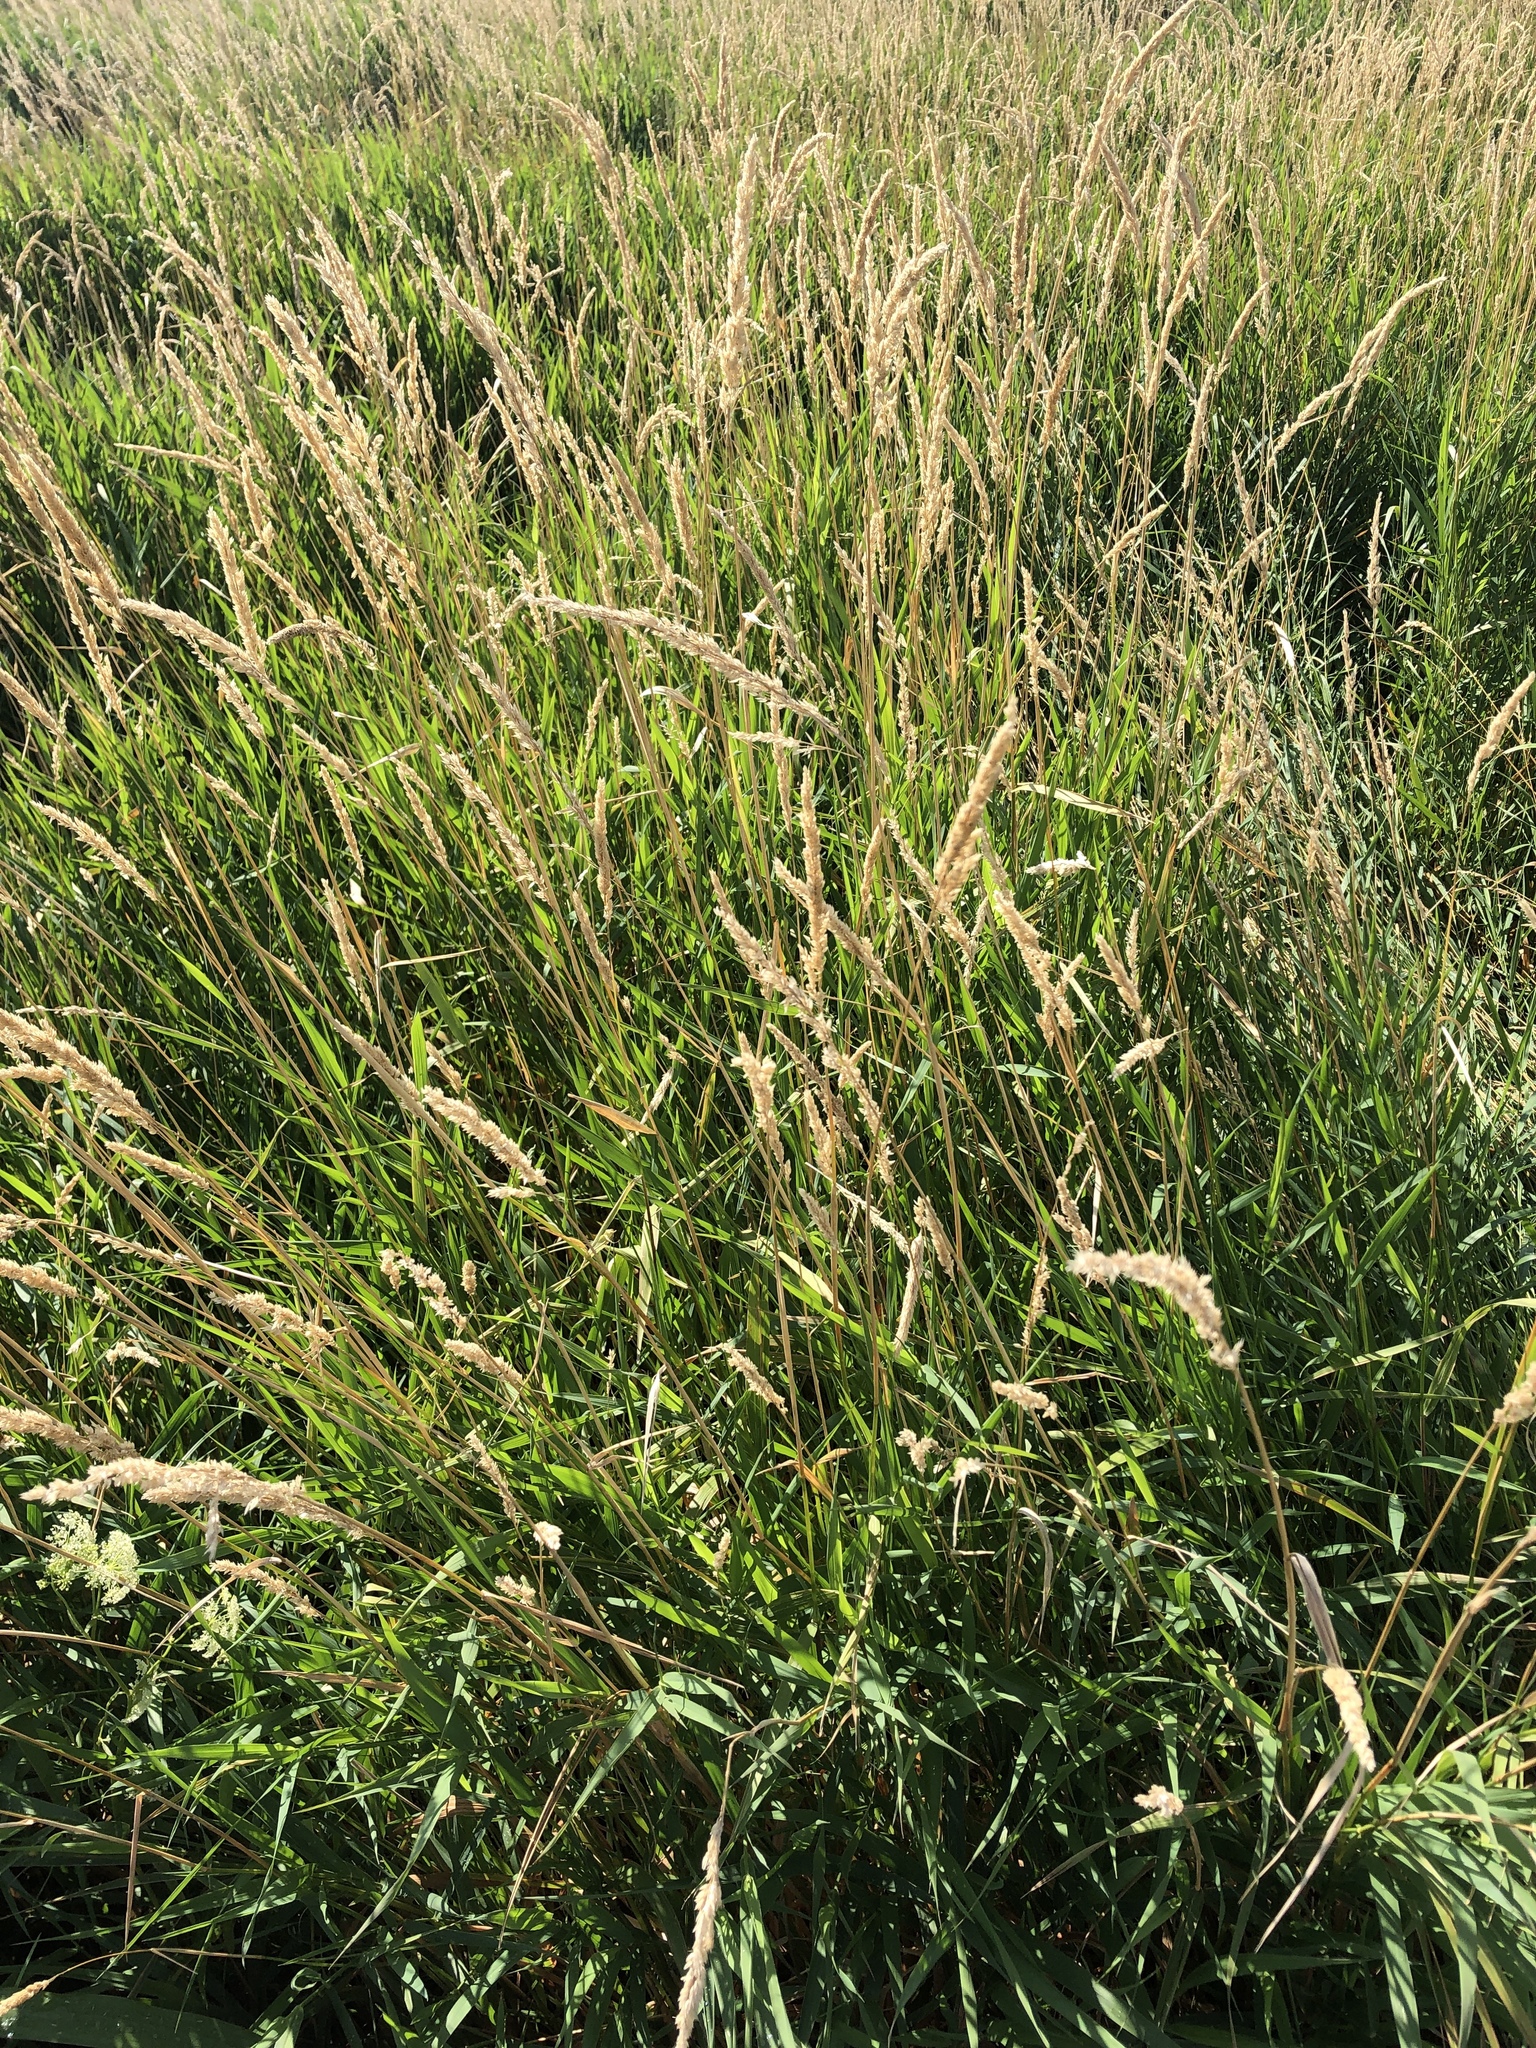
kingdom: Plantae
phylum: Tracheophyta
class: Liliopsida
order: Poales
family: Poaceae
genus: Koeleria
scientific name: Koeleria macrantha
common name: Crested hair-grass
